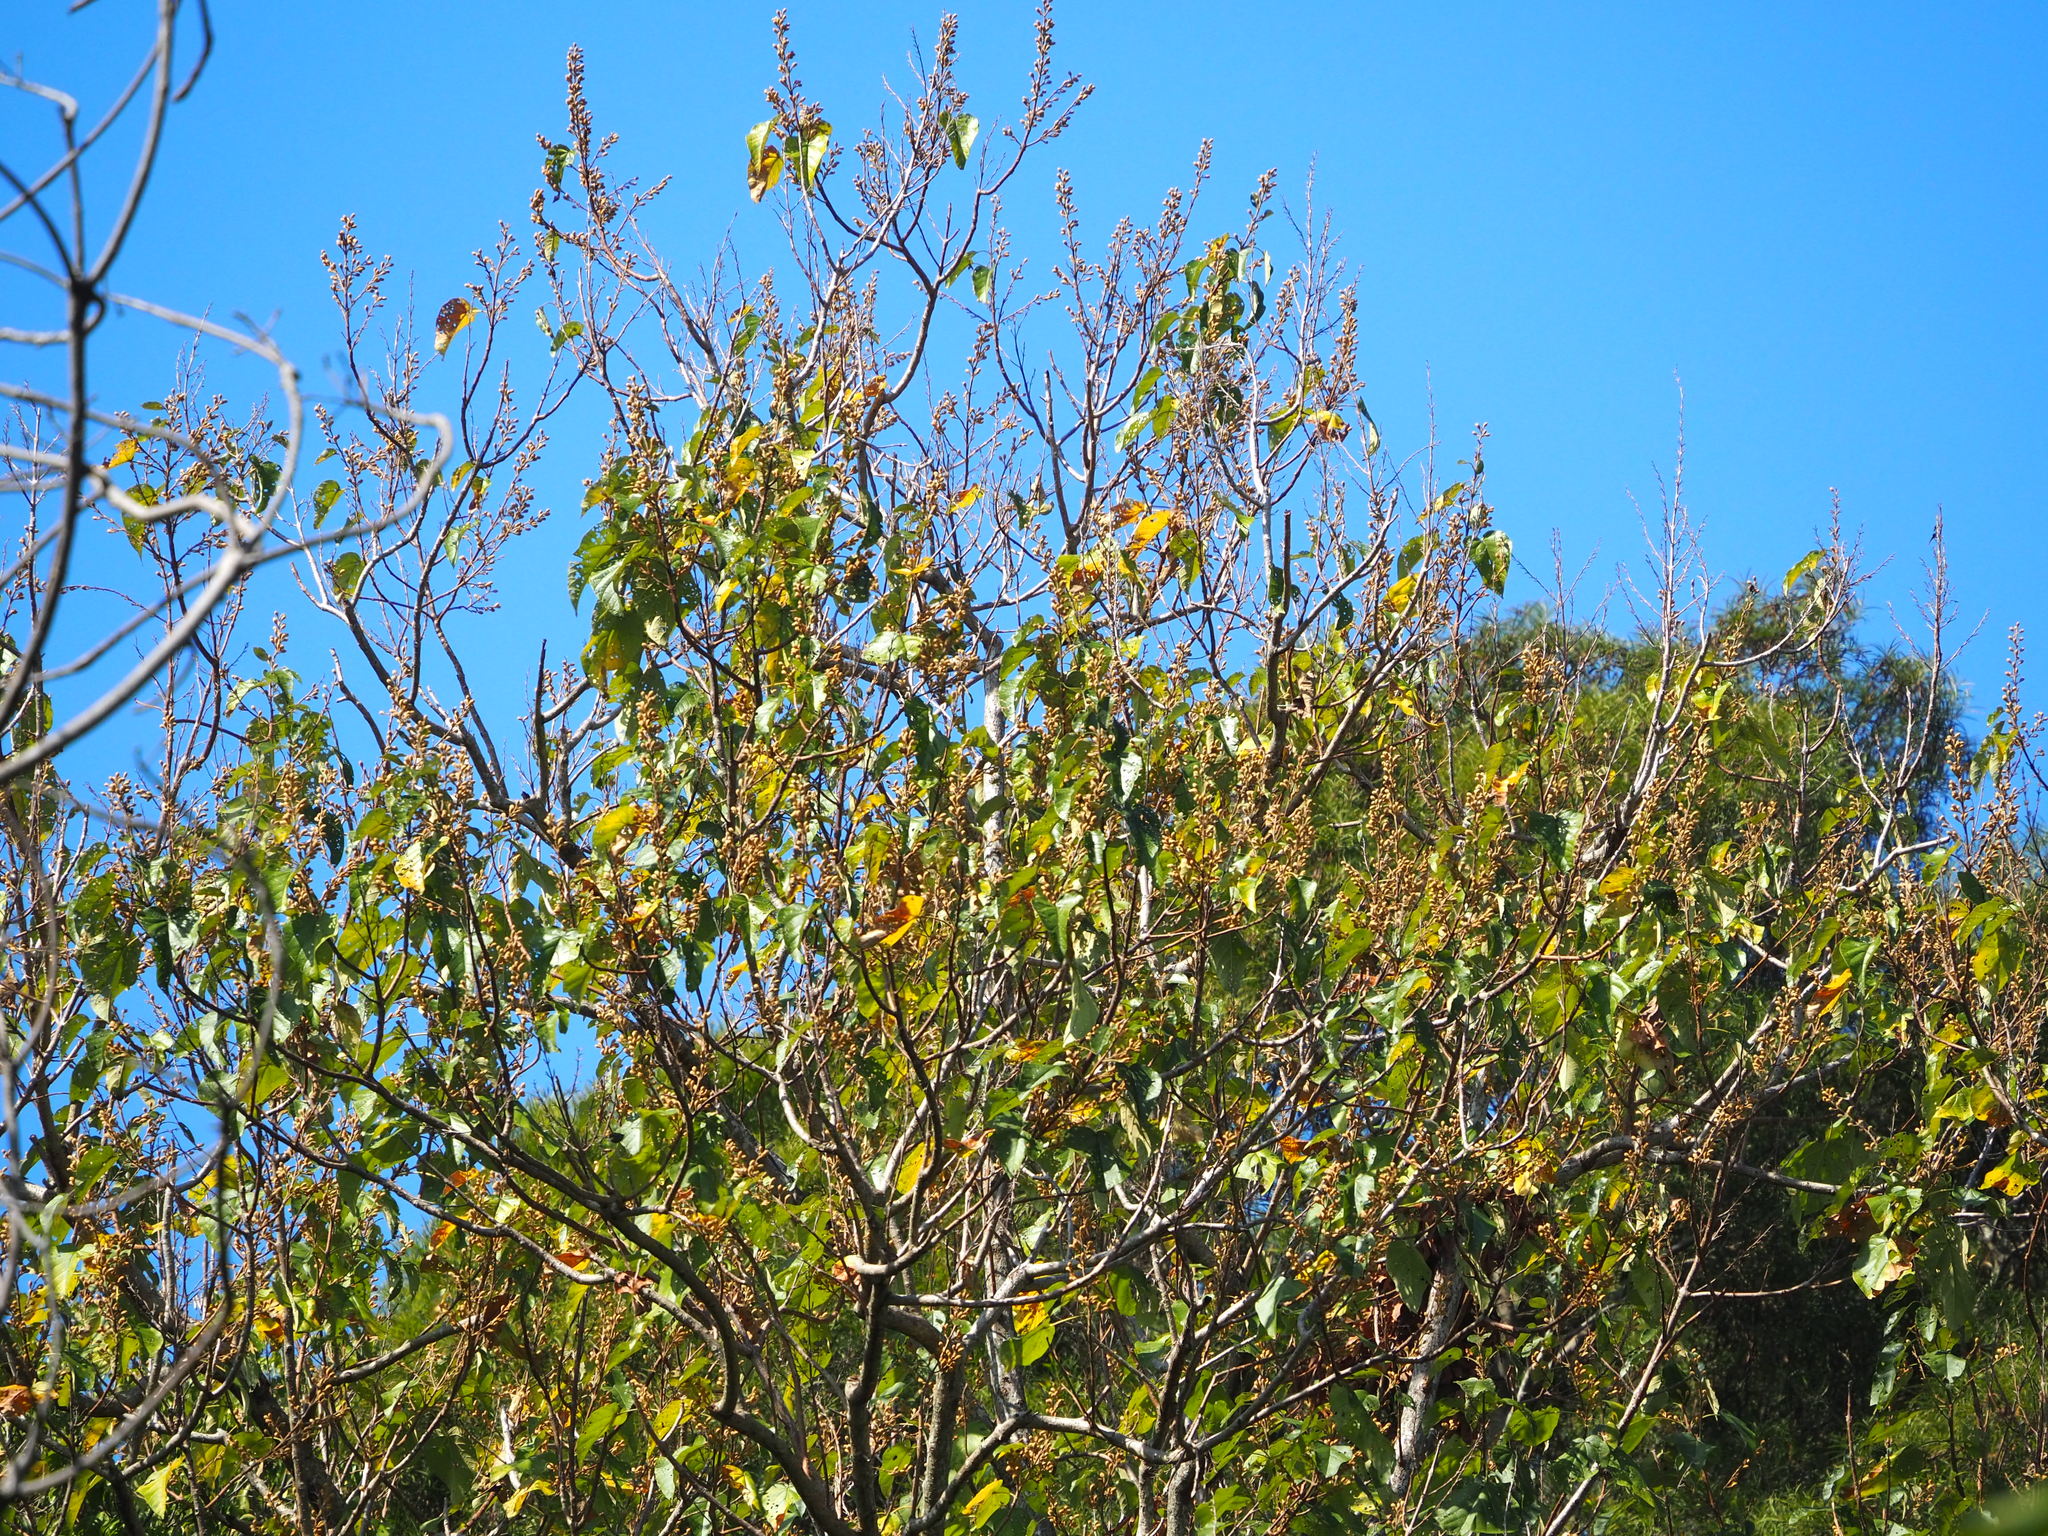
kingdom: Plantae
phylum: Tracheophyta
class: Magnoliopsida
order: Lamiales
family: Paulowniaceae
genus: Paulownia
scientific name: Paulownia taiwaniana
